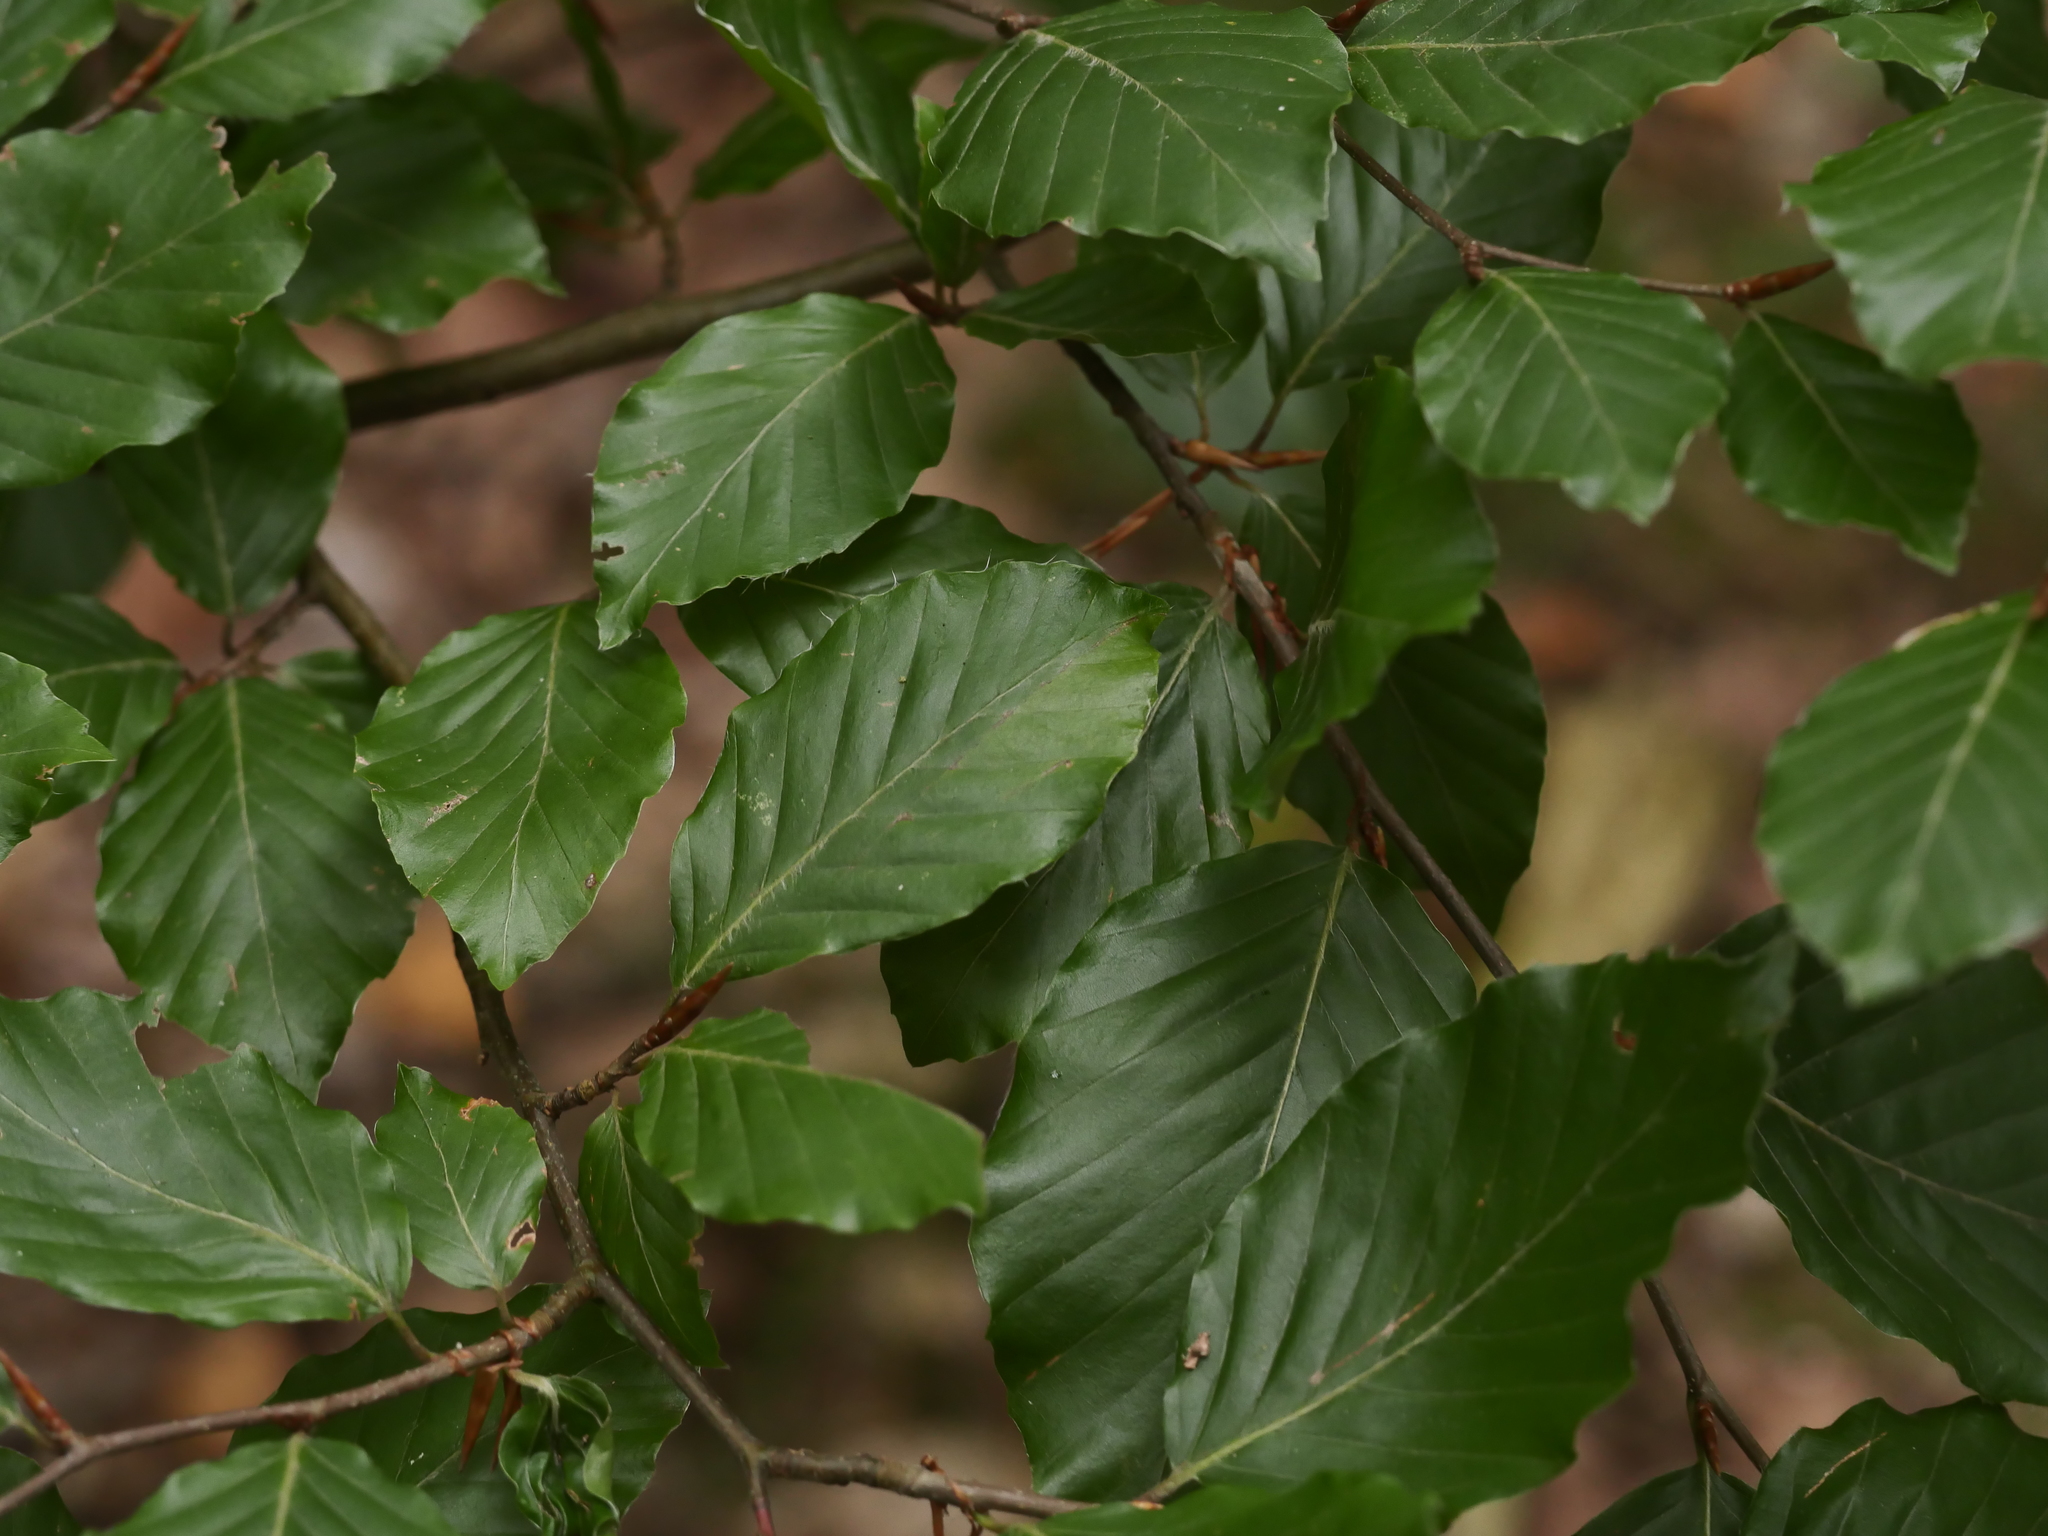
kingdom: Plantae
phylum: Tracheophyta
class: Magnoliopsida
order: Fagales
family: Fagaceae
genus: Fagus
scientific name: Fagus sylvatica
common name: Beech
